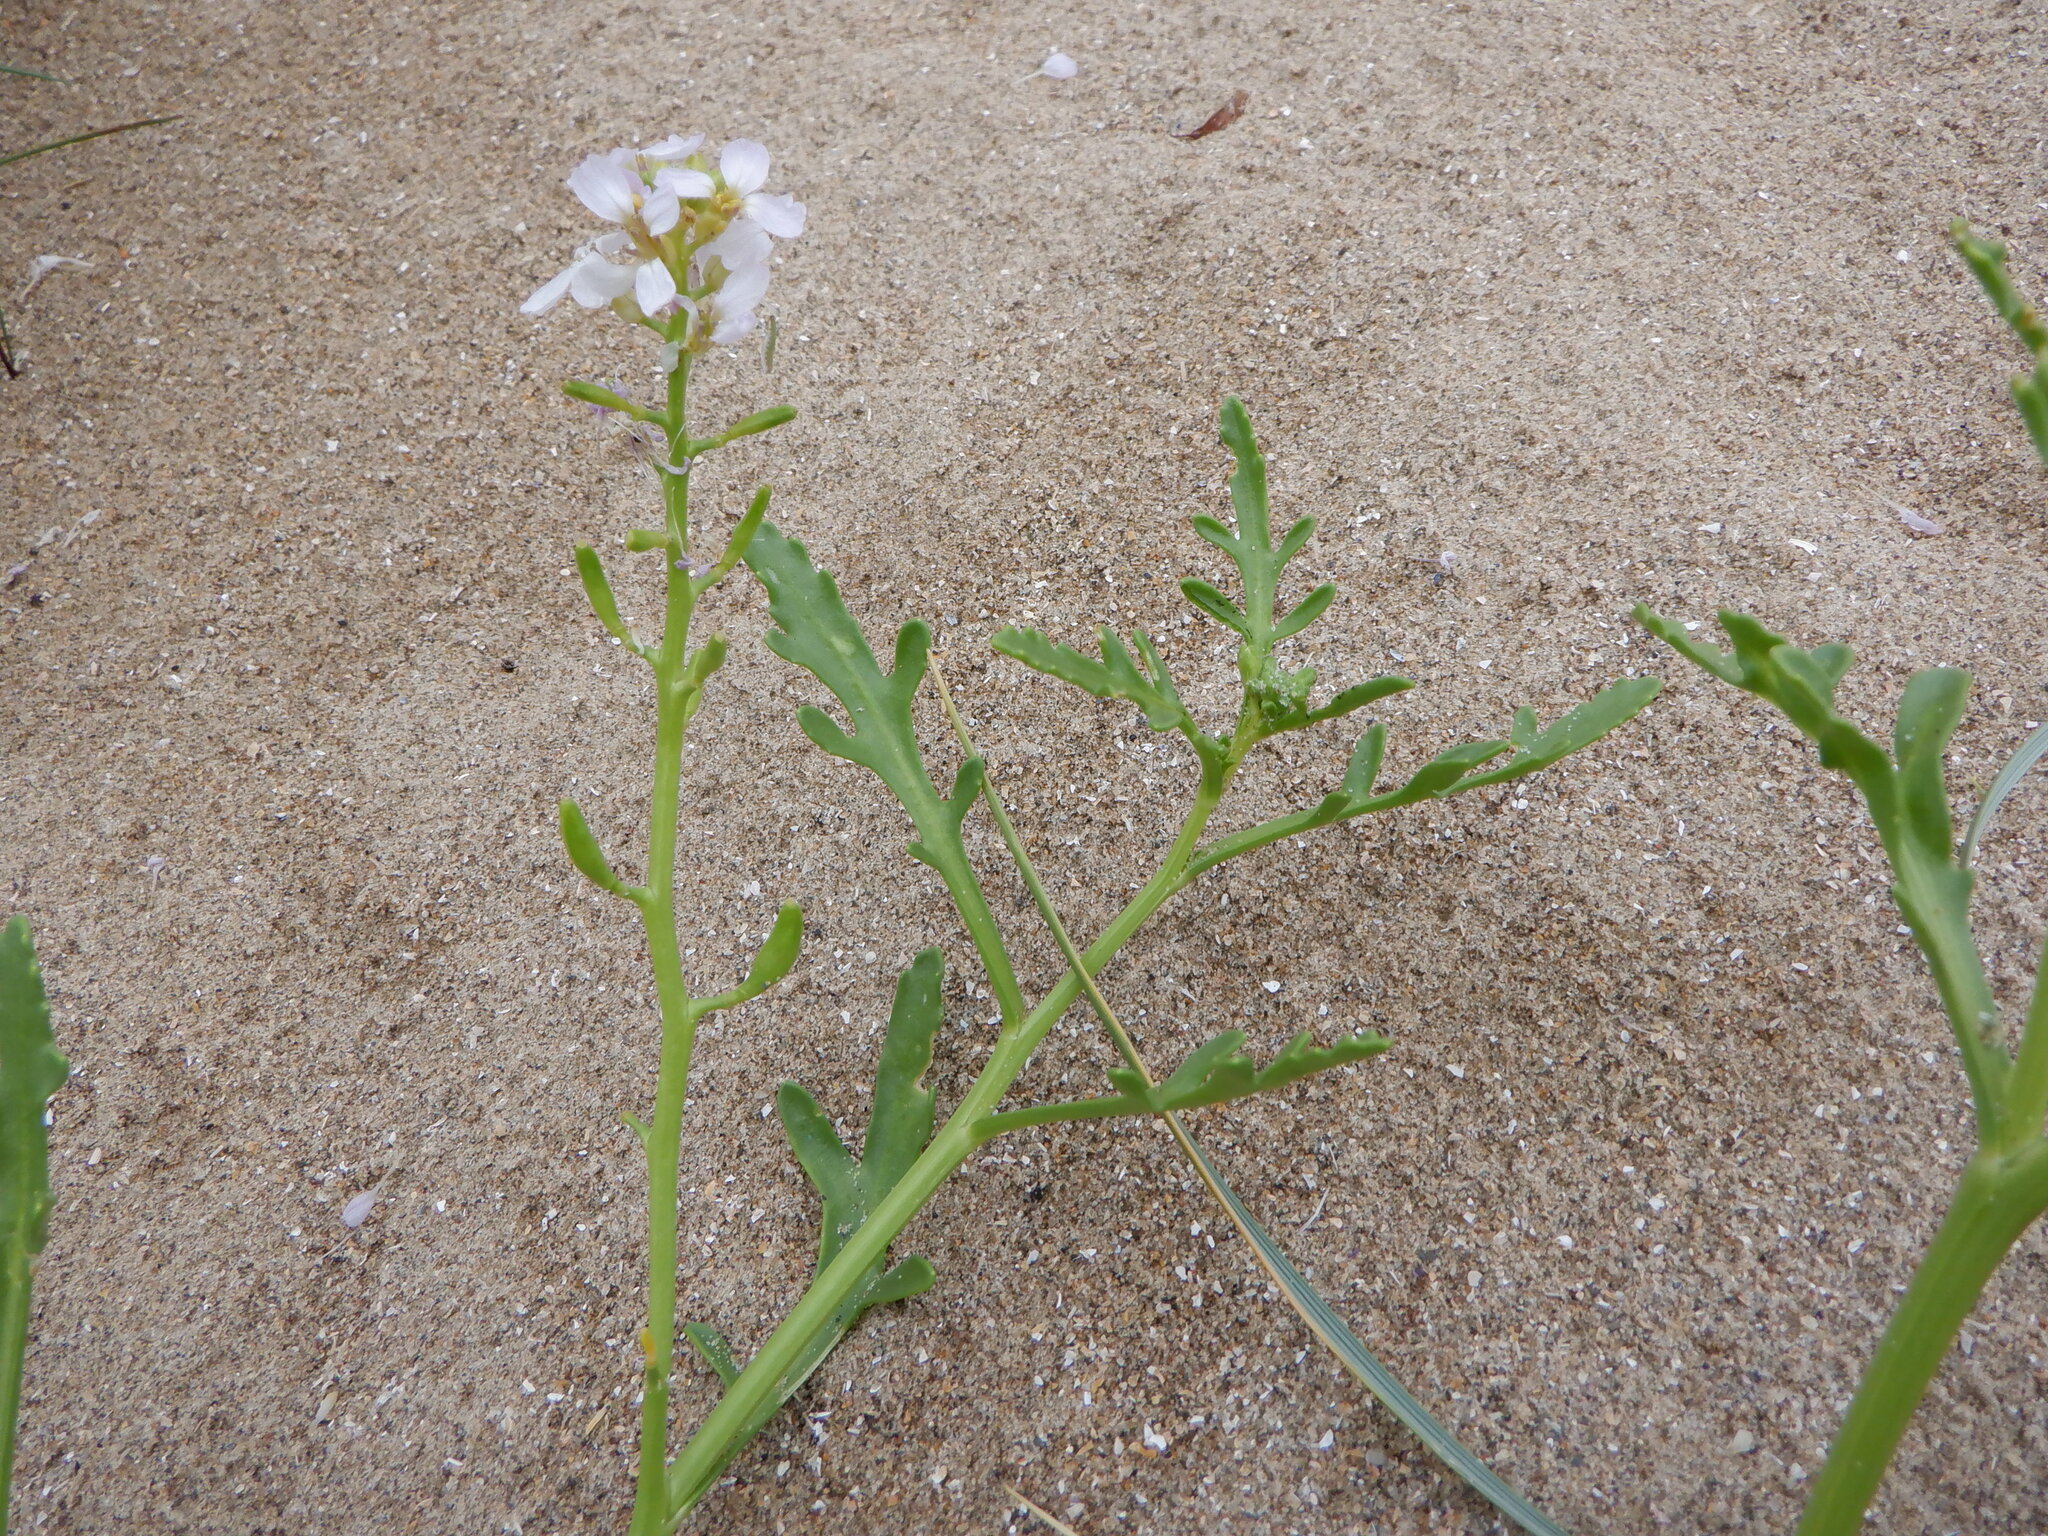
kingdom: Plantae
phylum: Tracheophyta
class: Magnoliopsida
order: Brassicales
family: Brassicaceae
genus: Cakile
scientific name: Cakile maritima
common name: Sea rocket
